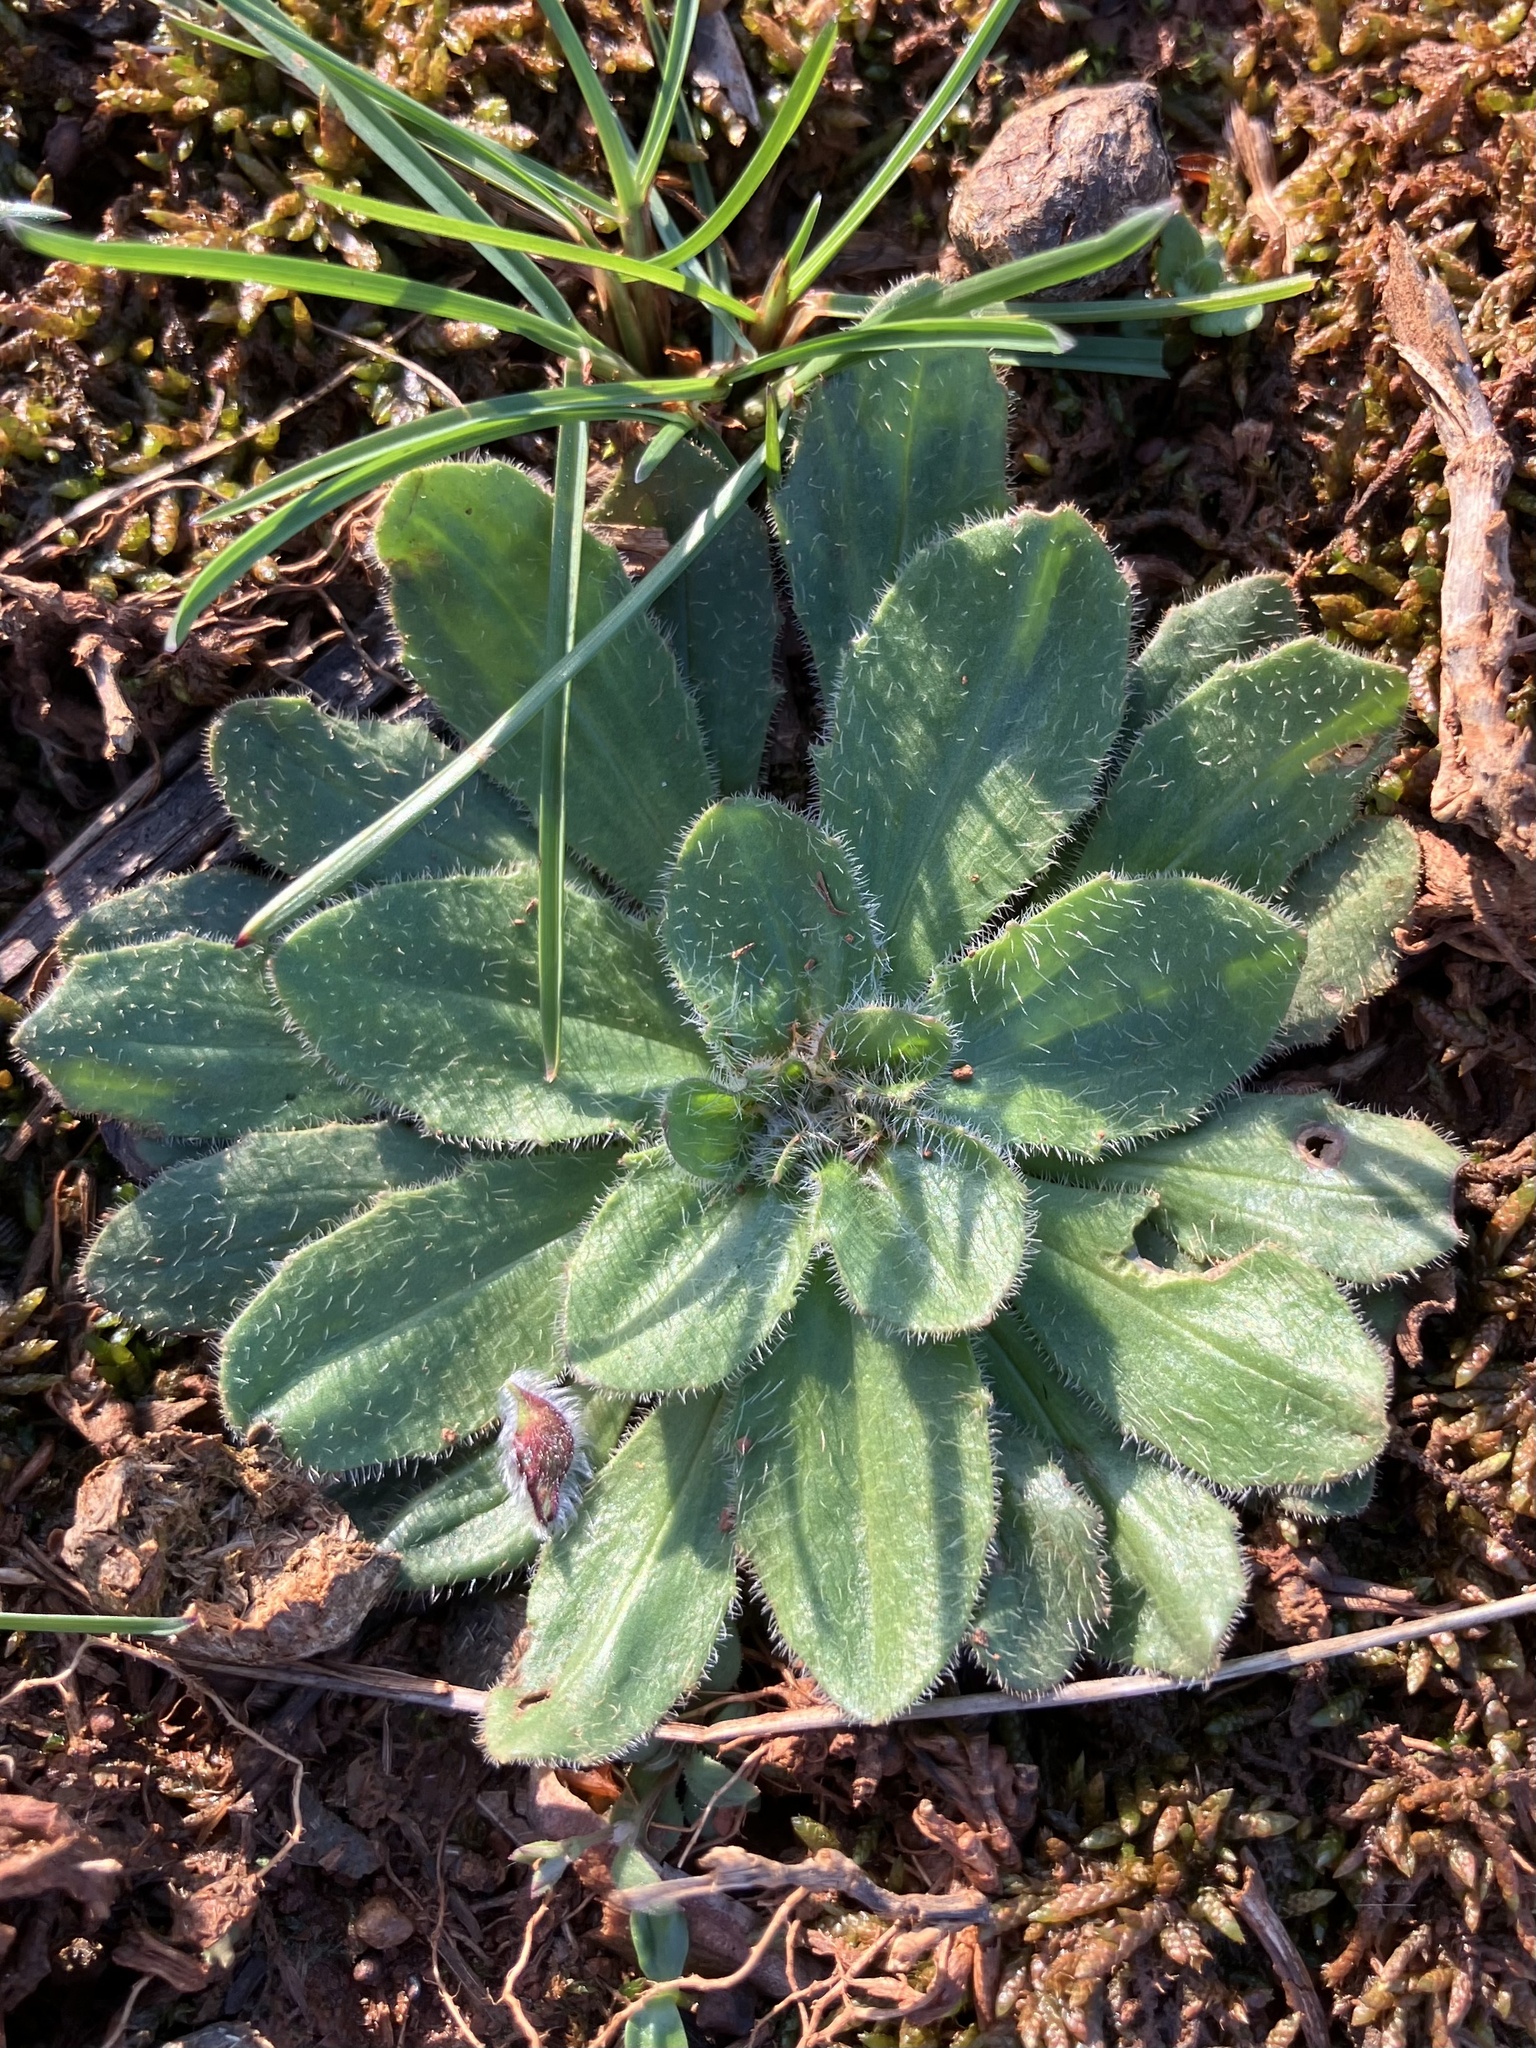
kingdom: Plantae
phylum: Tracheophyta
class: Magnoliopsida
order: Lamiales
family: Plantaginaceae
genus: Plantago
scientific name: Plantago virginica
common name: Hoary plantain
